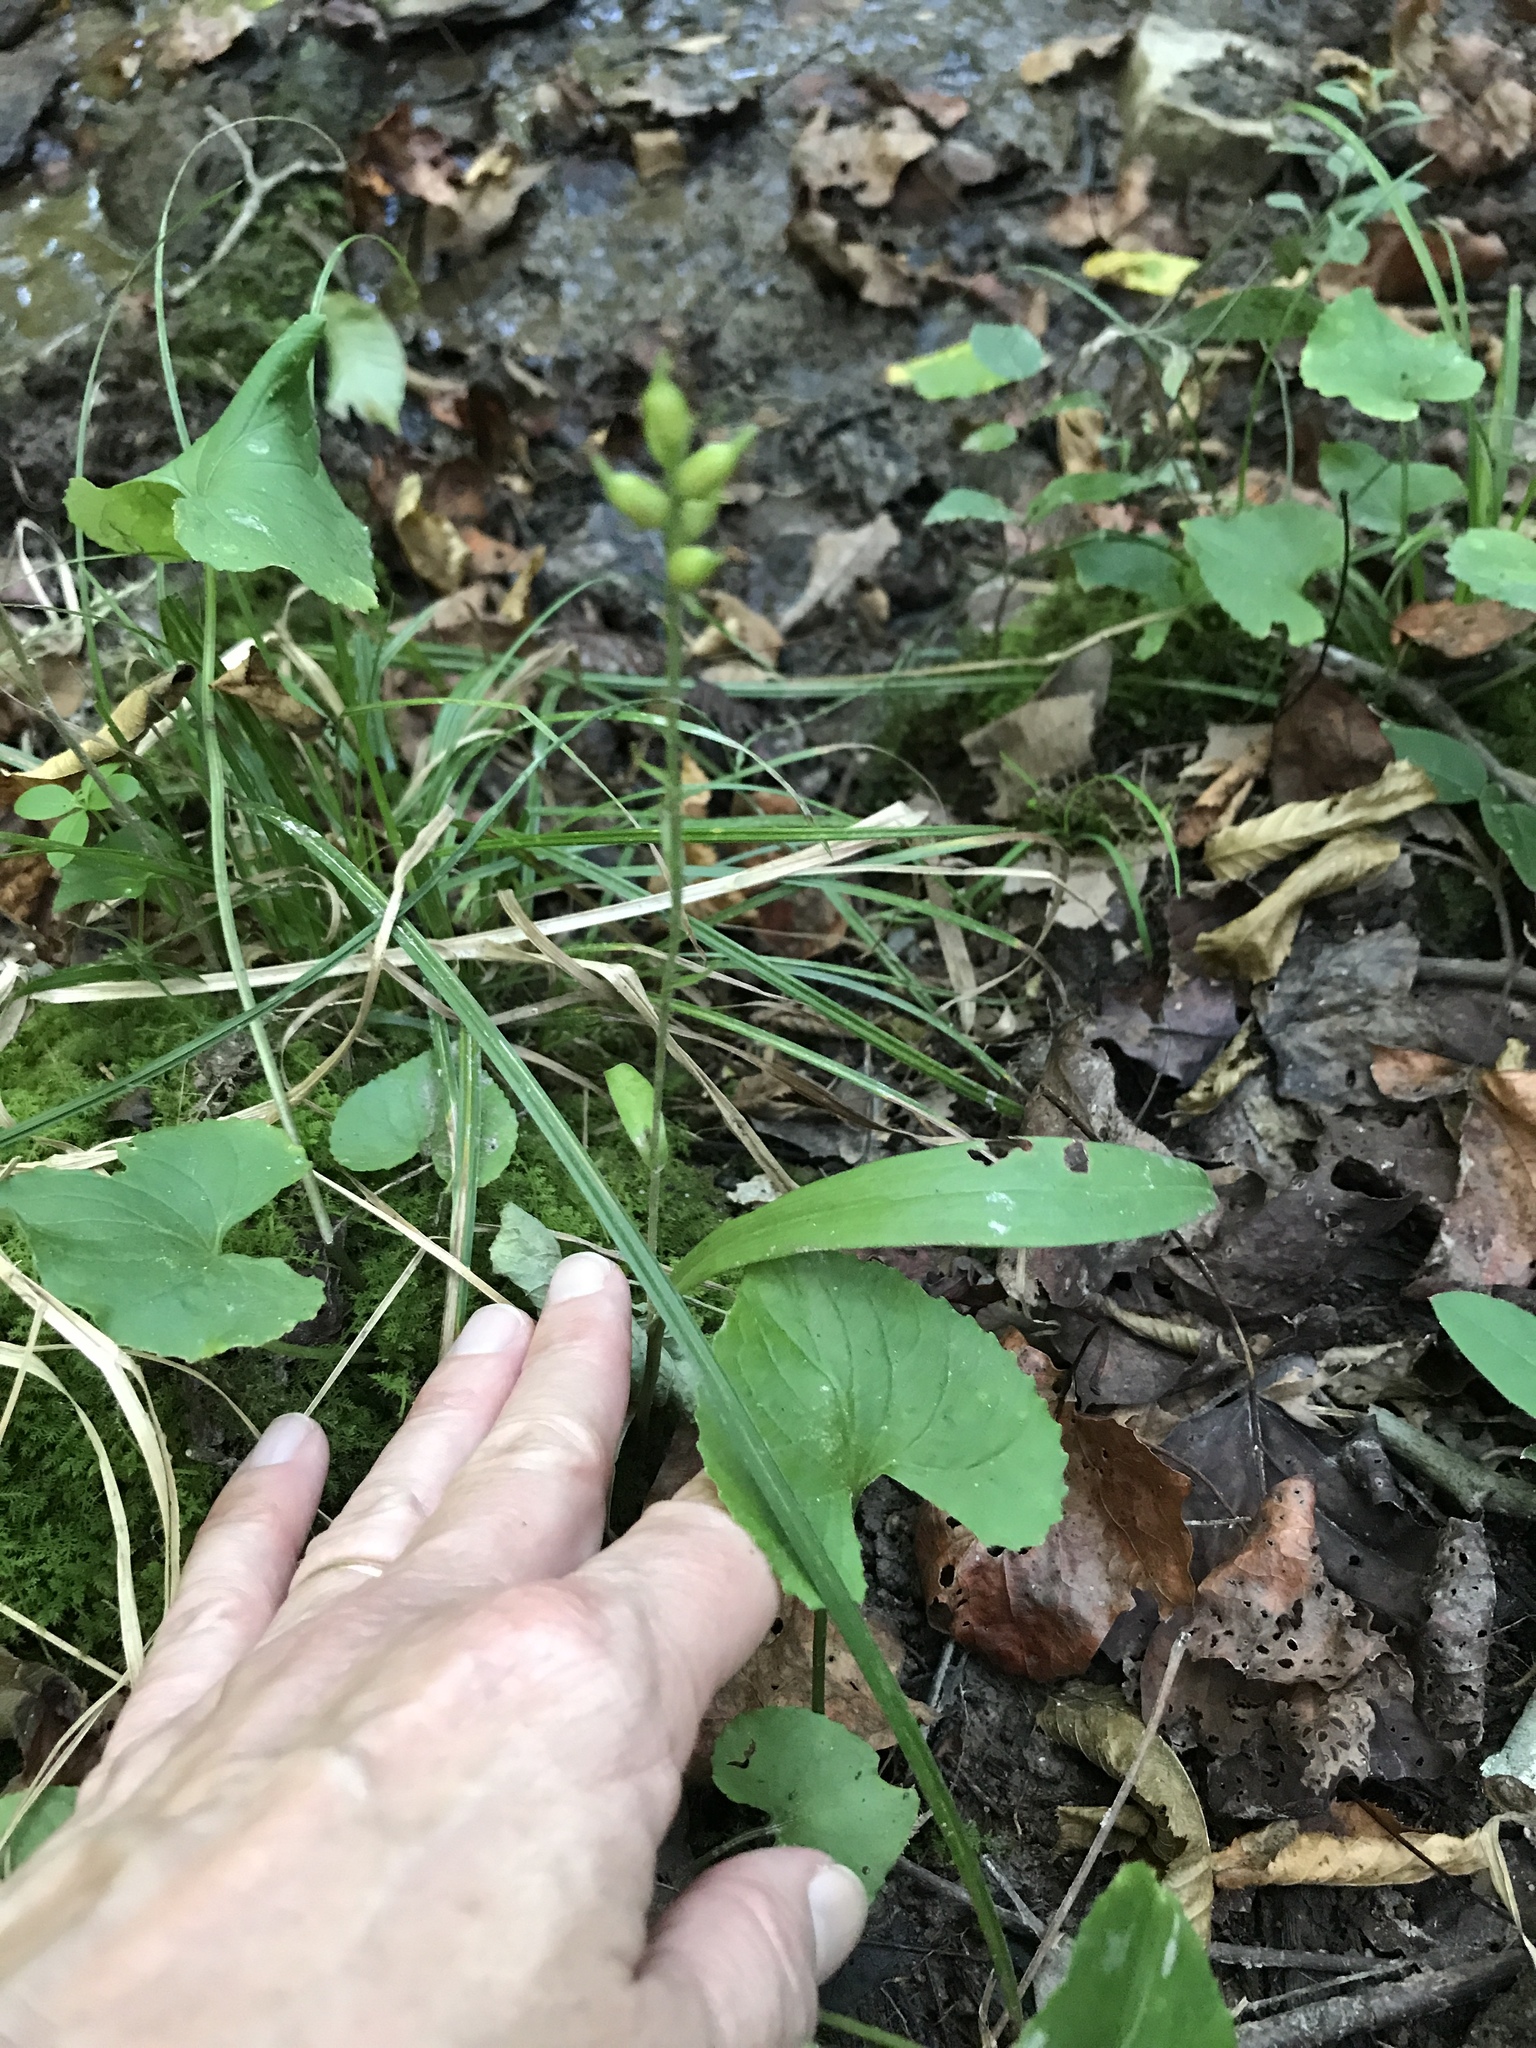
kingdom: Plantae
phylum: Tracheophyta
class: Liliopsida
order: Asparagales
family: Orchidaceae
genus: Platanthera
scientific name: Platanthera clavellata
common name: Club-spur orchid
